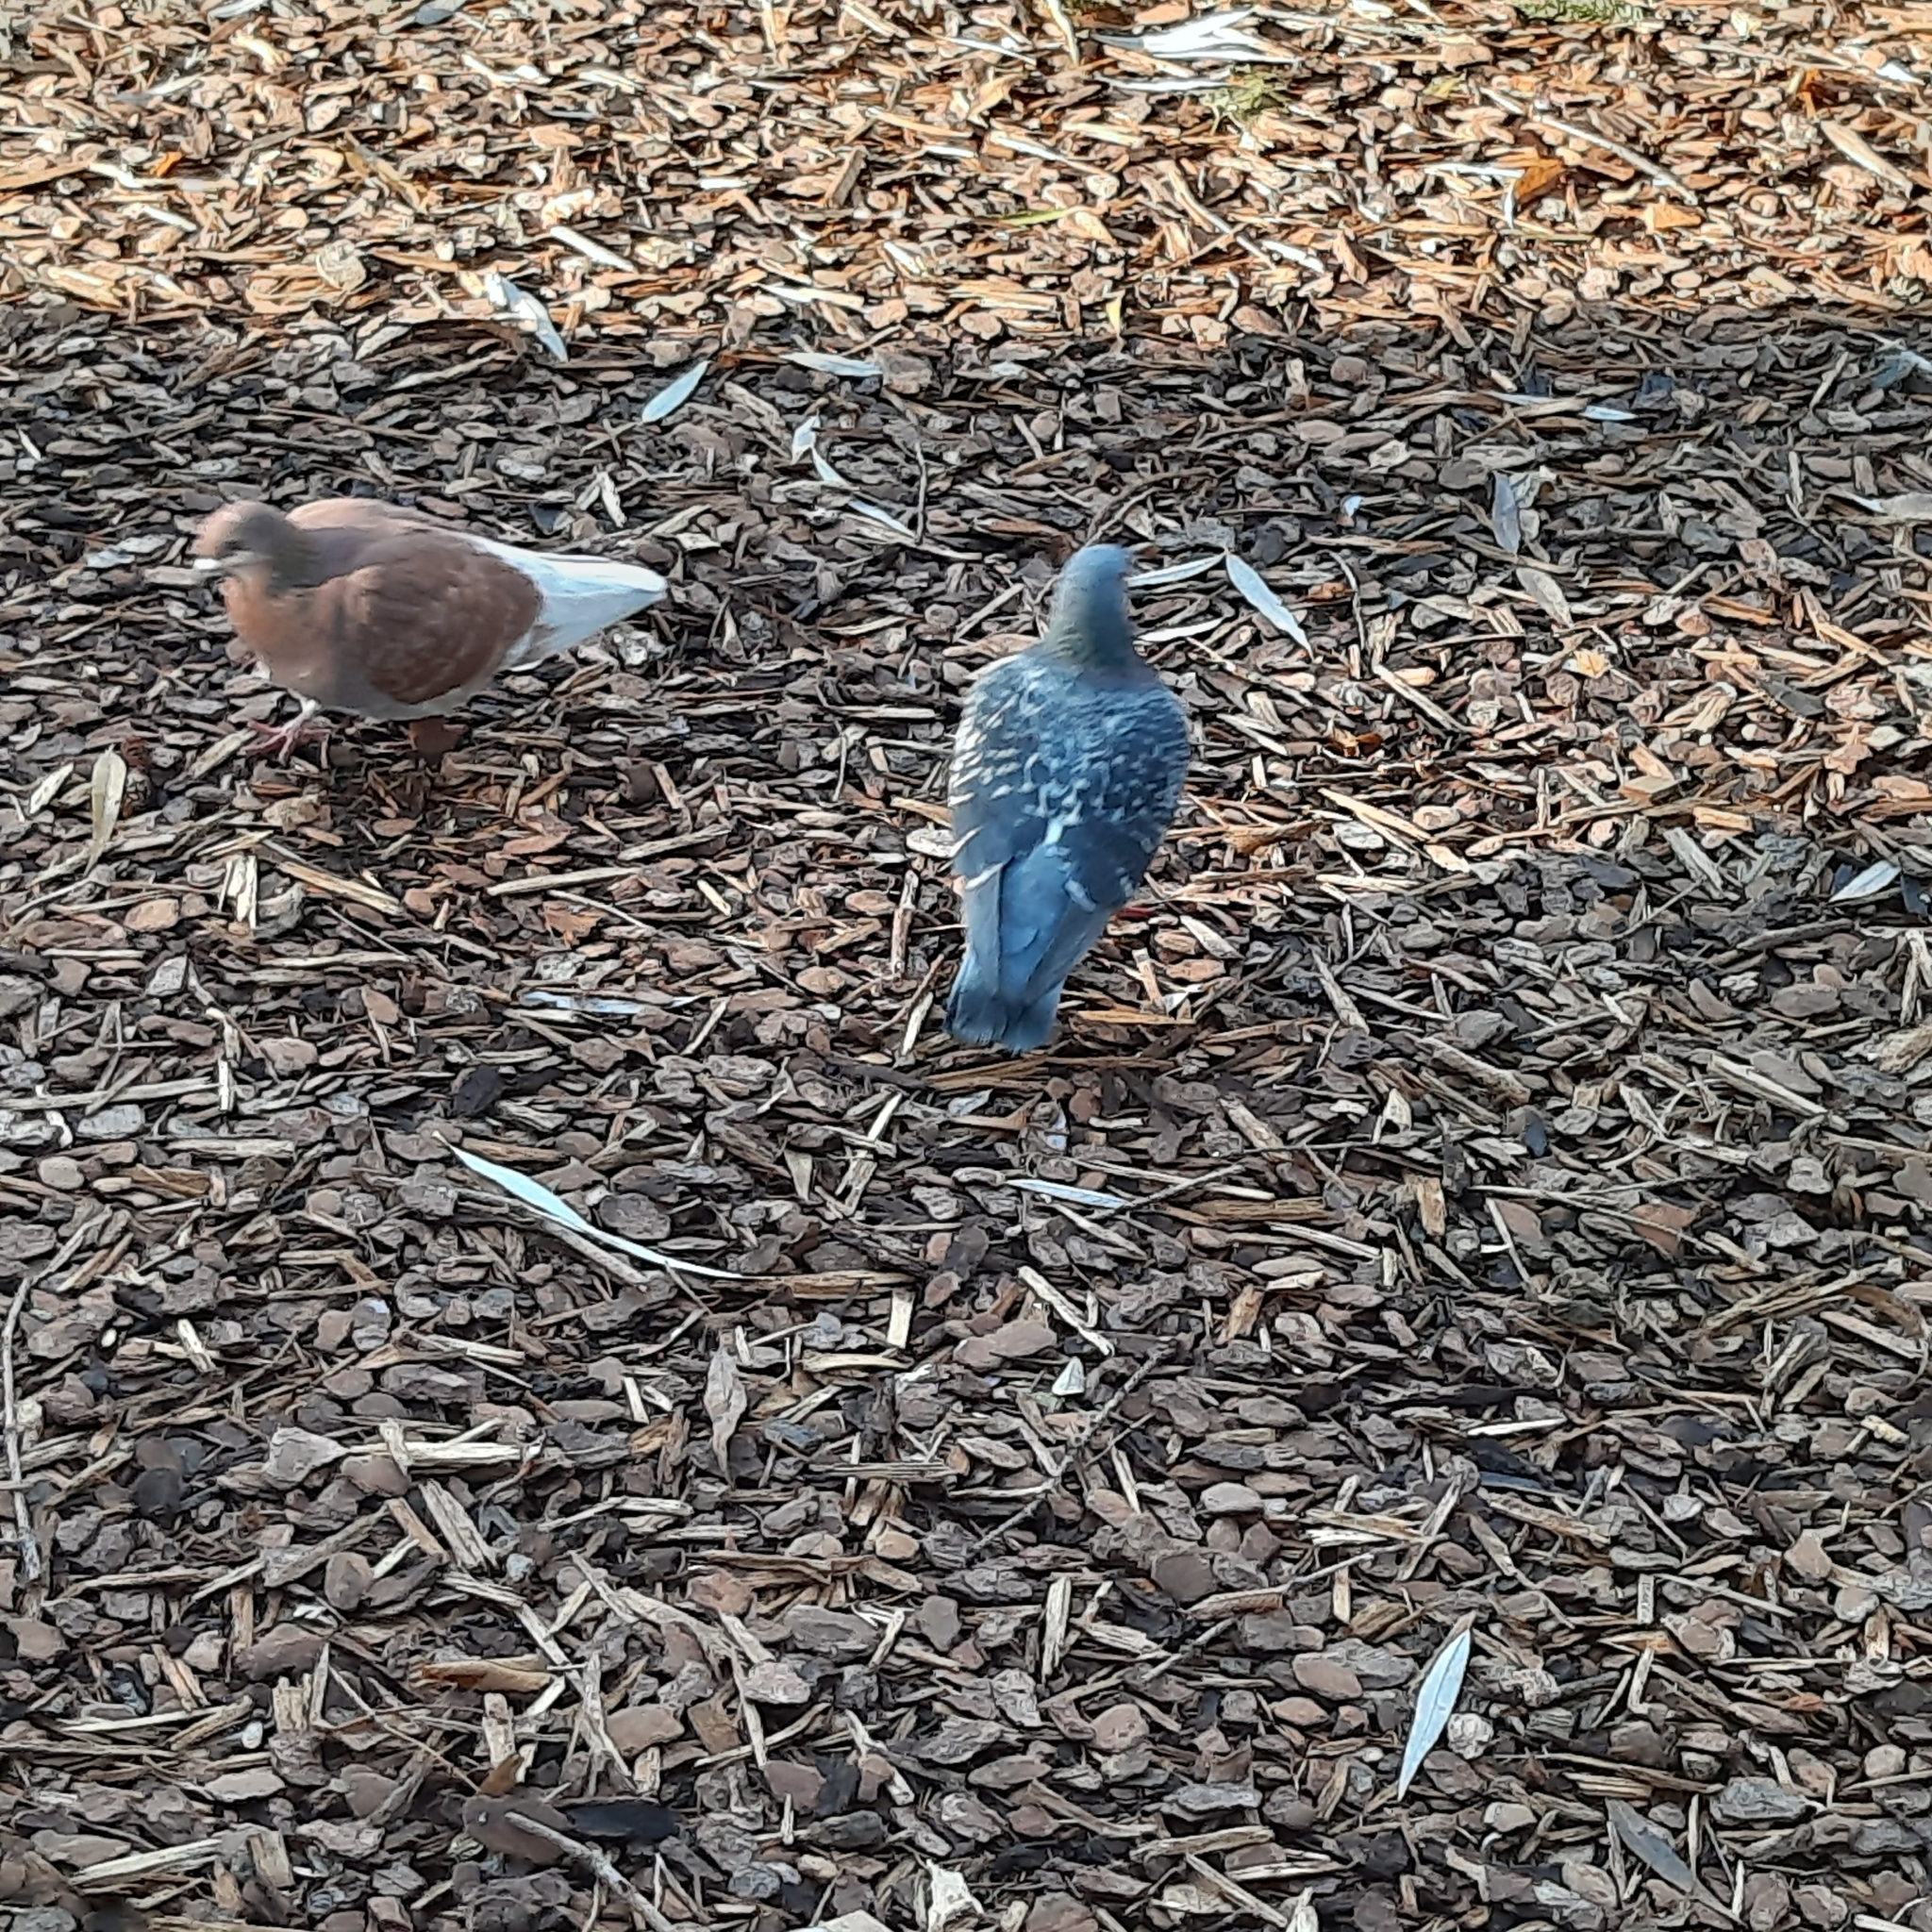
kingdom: Animalia
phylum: Chordata
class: Aves
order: Columbiformes
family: Columbidae
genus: Columba
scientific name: Columba livia
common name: Rock pigeon
